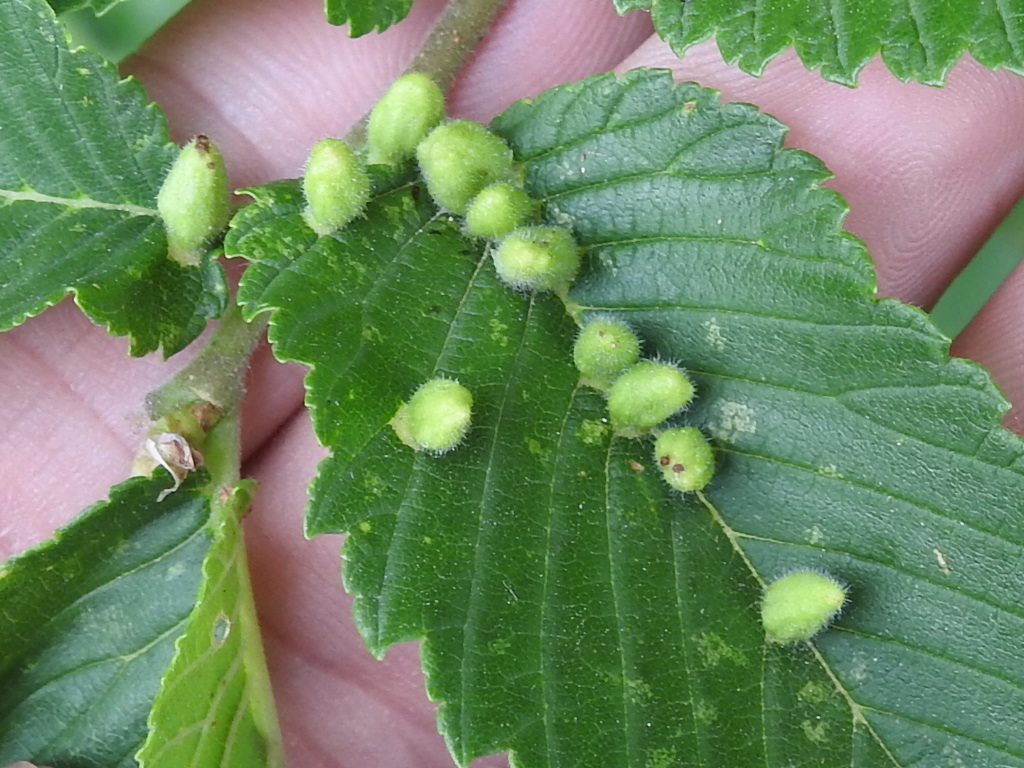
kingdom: Animalia
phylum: Arthropoda
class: Arachnida
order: Trombidiformes
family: Eriophyidae
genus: Aceria
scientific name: Aceria
